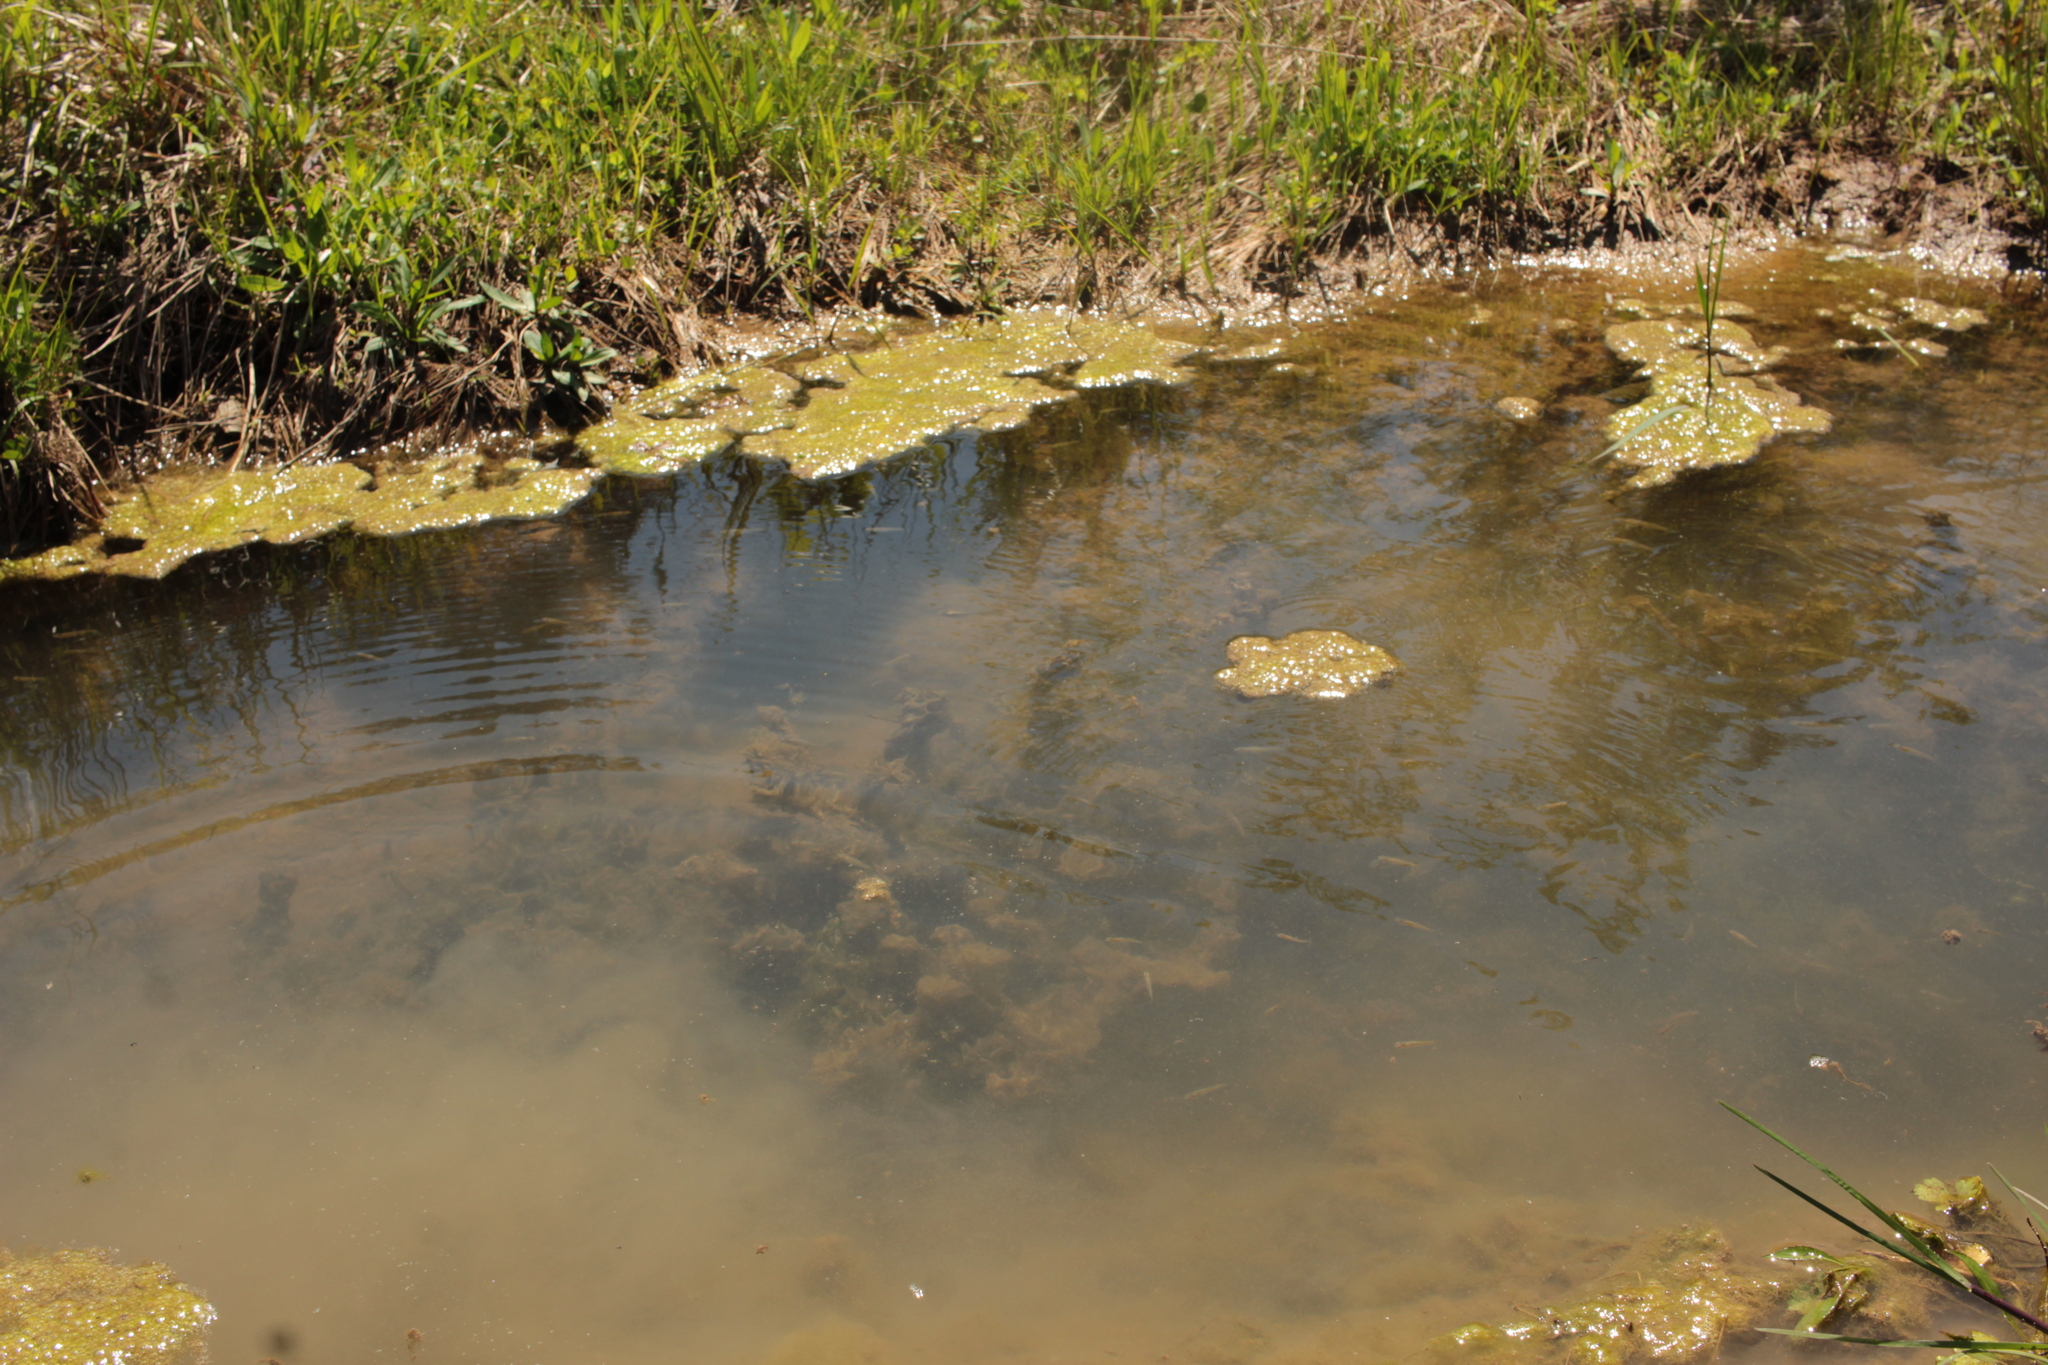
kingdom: Animalia
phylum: Chordata
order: Cyprinodontiformes
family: Poeciliidae
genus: Gambusia
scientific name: Gambusia affinis
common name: Mosquitofish
